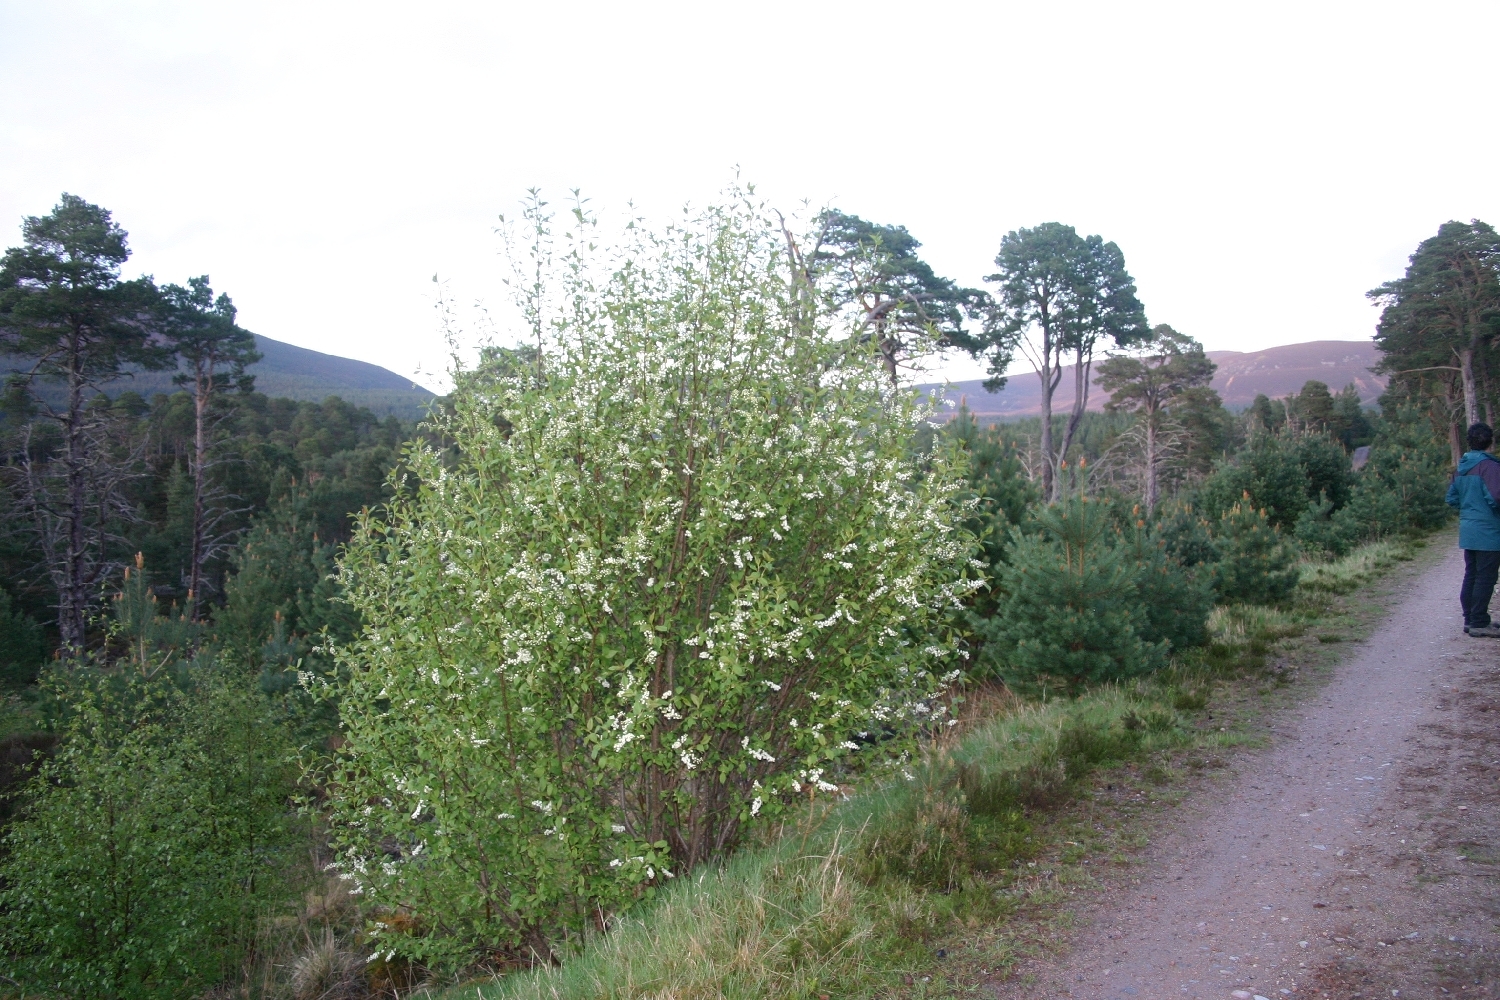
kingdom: Plantae
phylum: Tracheophyta
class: Magnoliopsida
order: Rosales
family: Rosaceae
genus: Prunus
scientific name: Prunus padus
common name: Bird cherry
